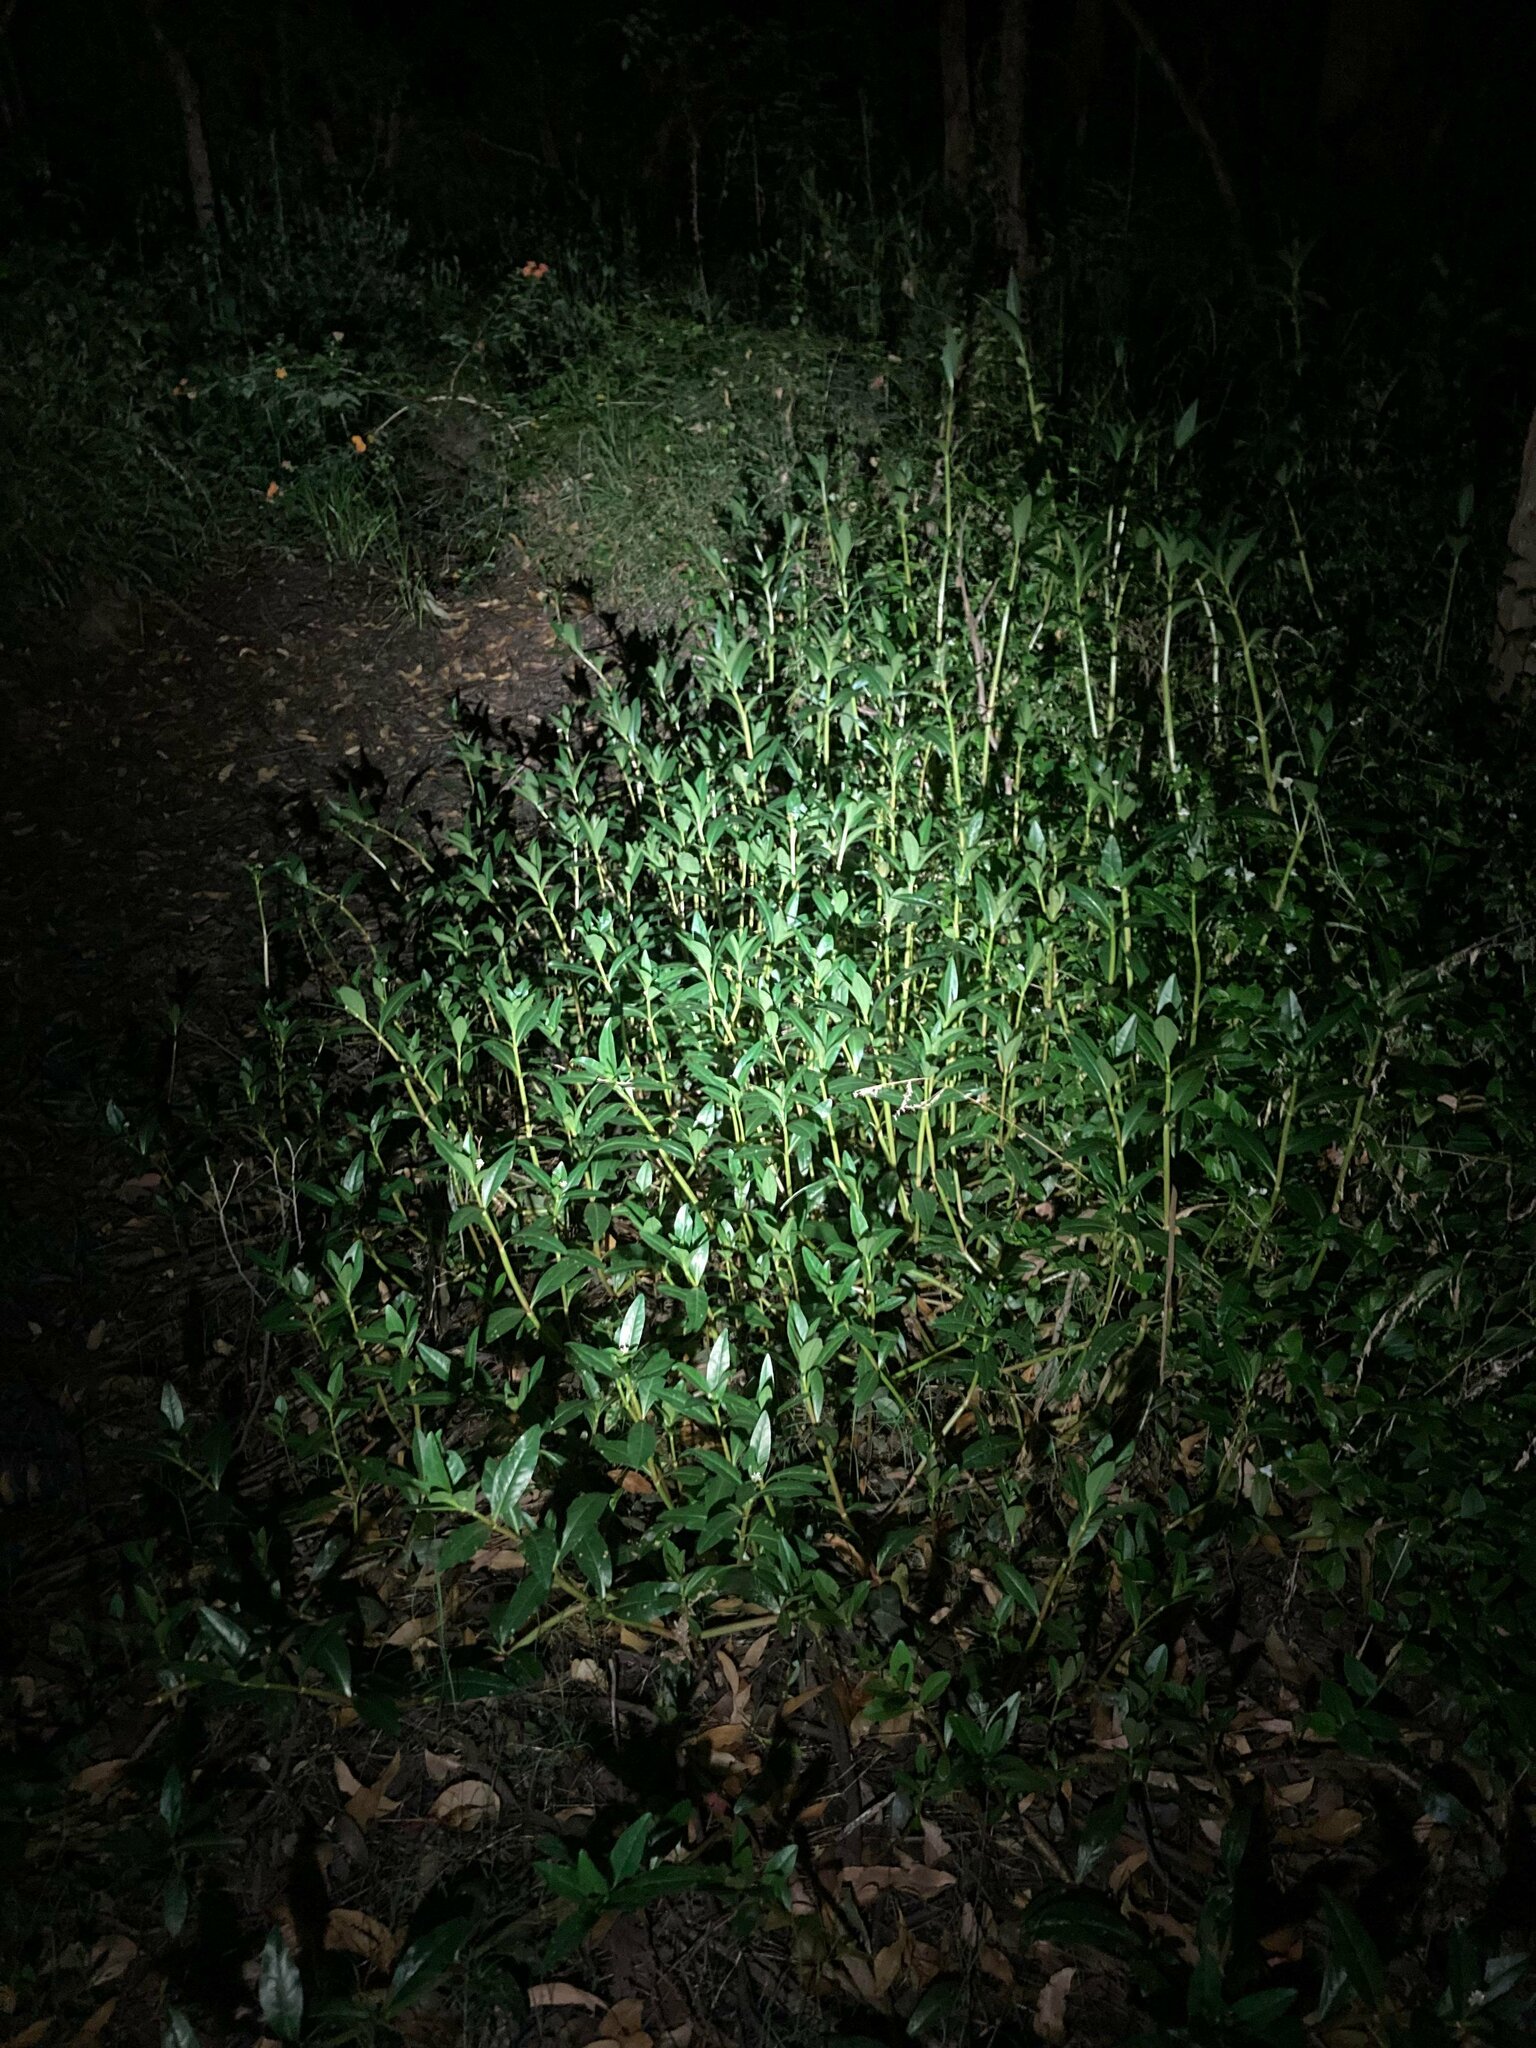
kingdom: Plantae
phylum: Tracheophyta
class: Magnoliopsida
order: Caryophyllales
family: Amaranthaceae
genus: Alternanthera
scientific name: Alternanthera philoxeroides
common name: Alligatorweed
